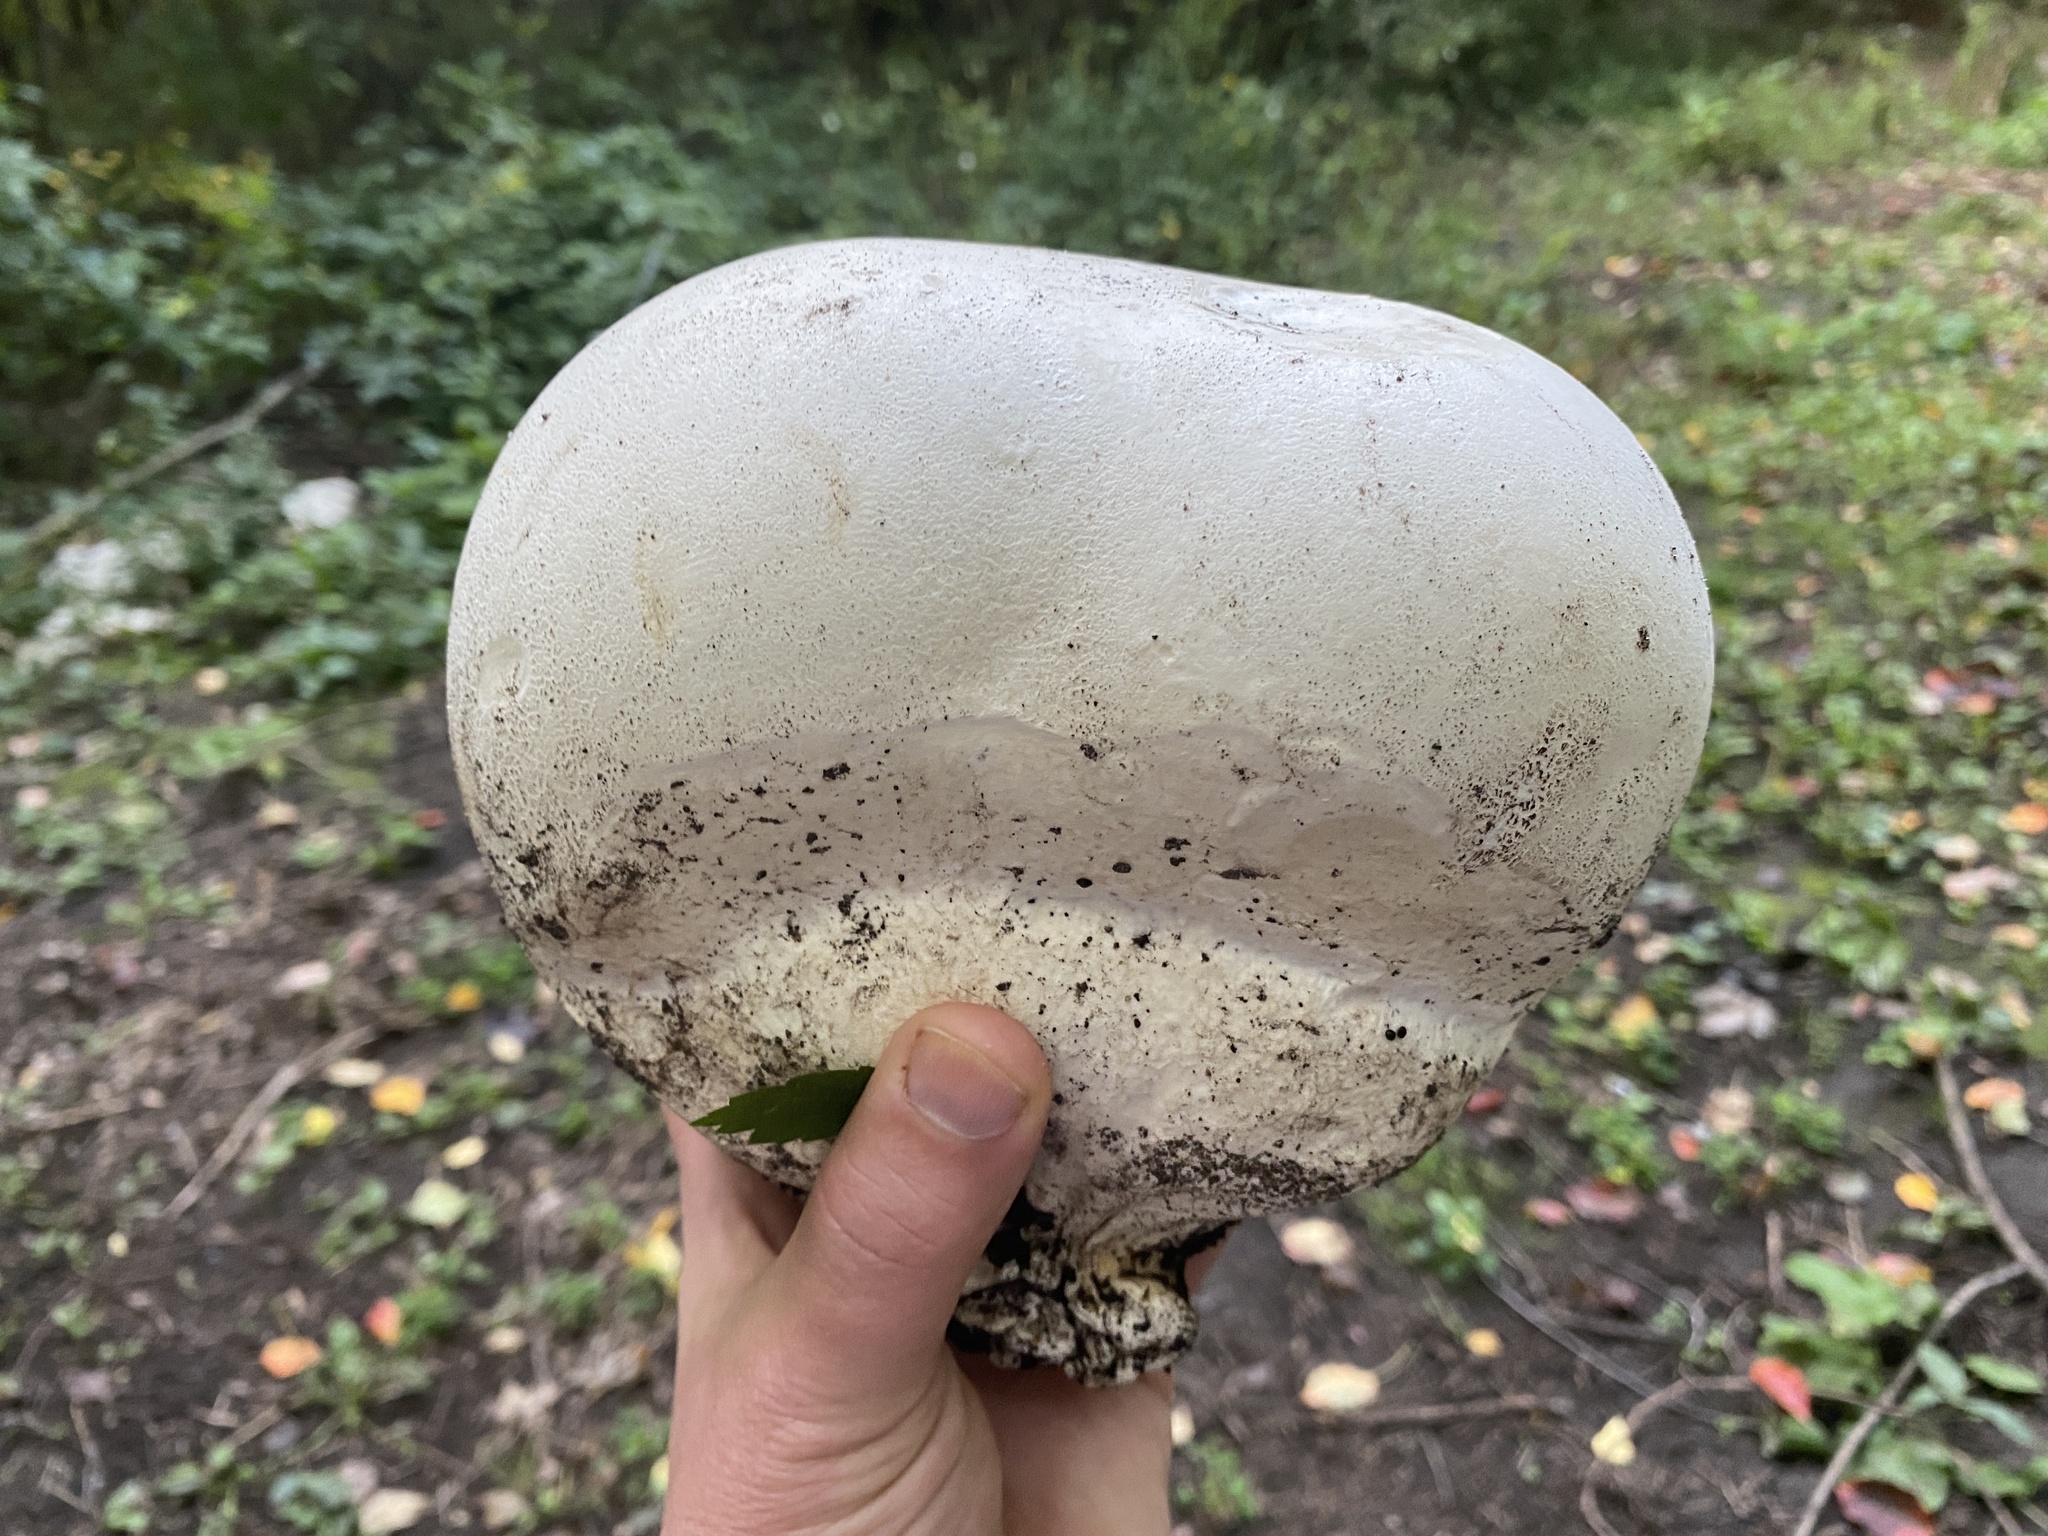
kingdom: Fungi
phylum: Basidiomycota
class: Agaricomycetes
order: Agaricales
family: Lycoperdaceae
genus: Calvatia
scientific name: Calvatia gigantea
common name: Giant puffball
